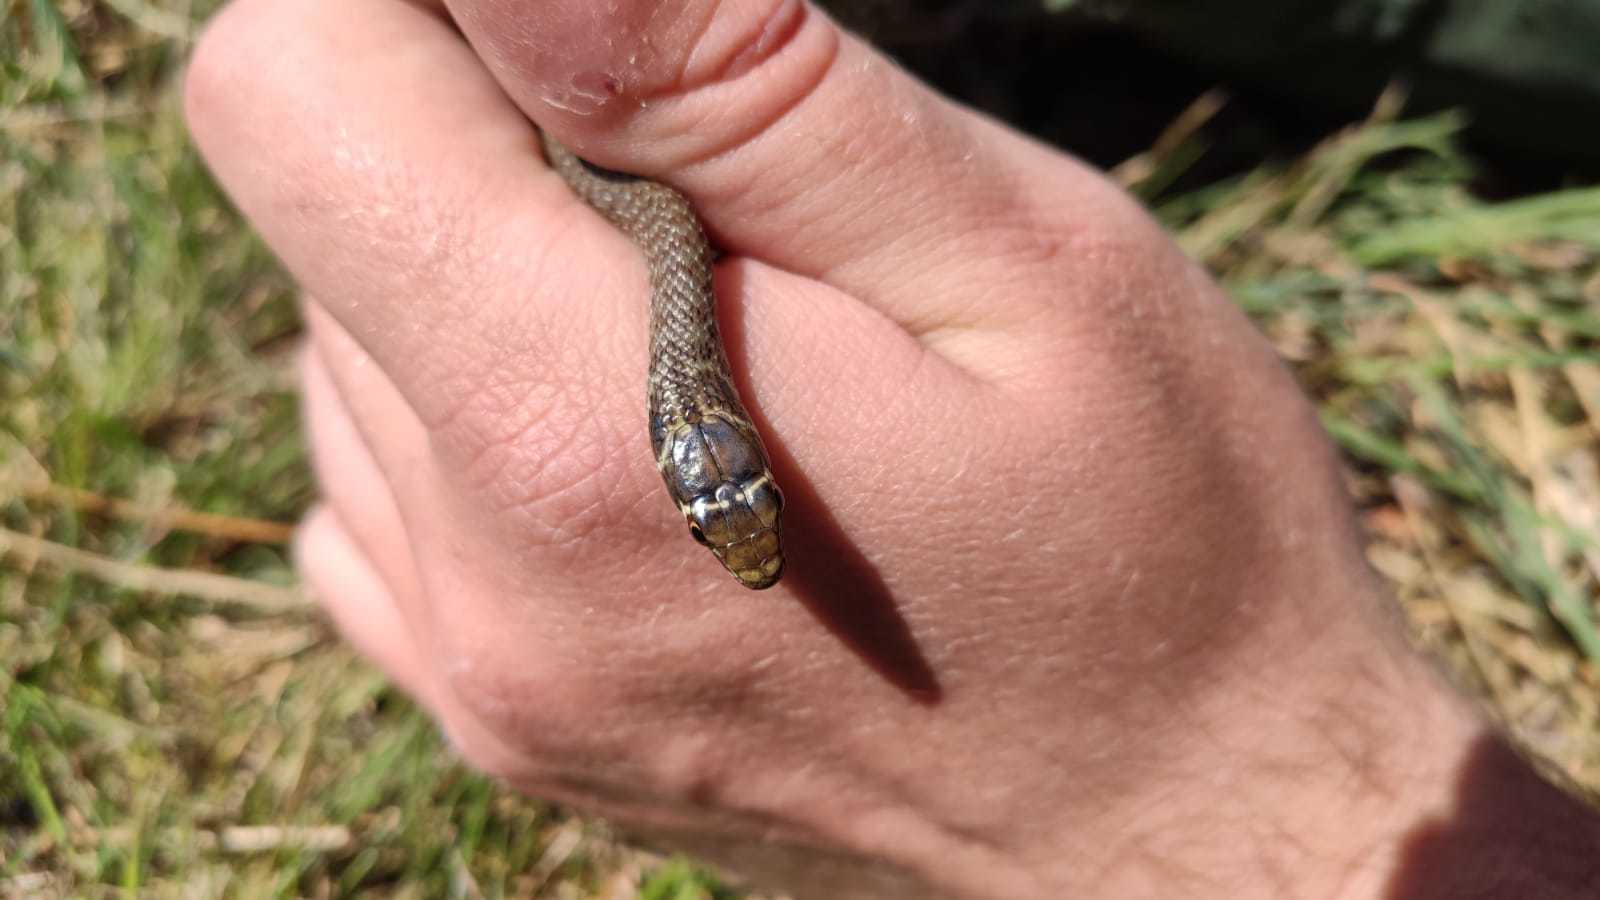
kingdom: Animalia
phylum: Chordata
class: Squamata
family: Colubridae
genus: Hierophis
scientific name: Hierophis viridiflavus
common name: Green whip snake
